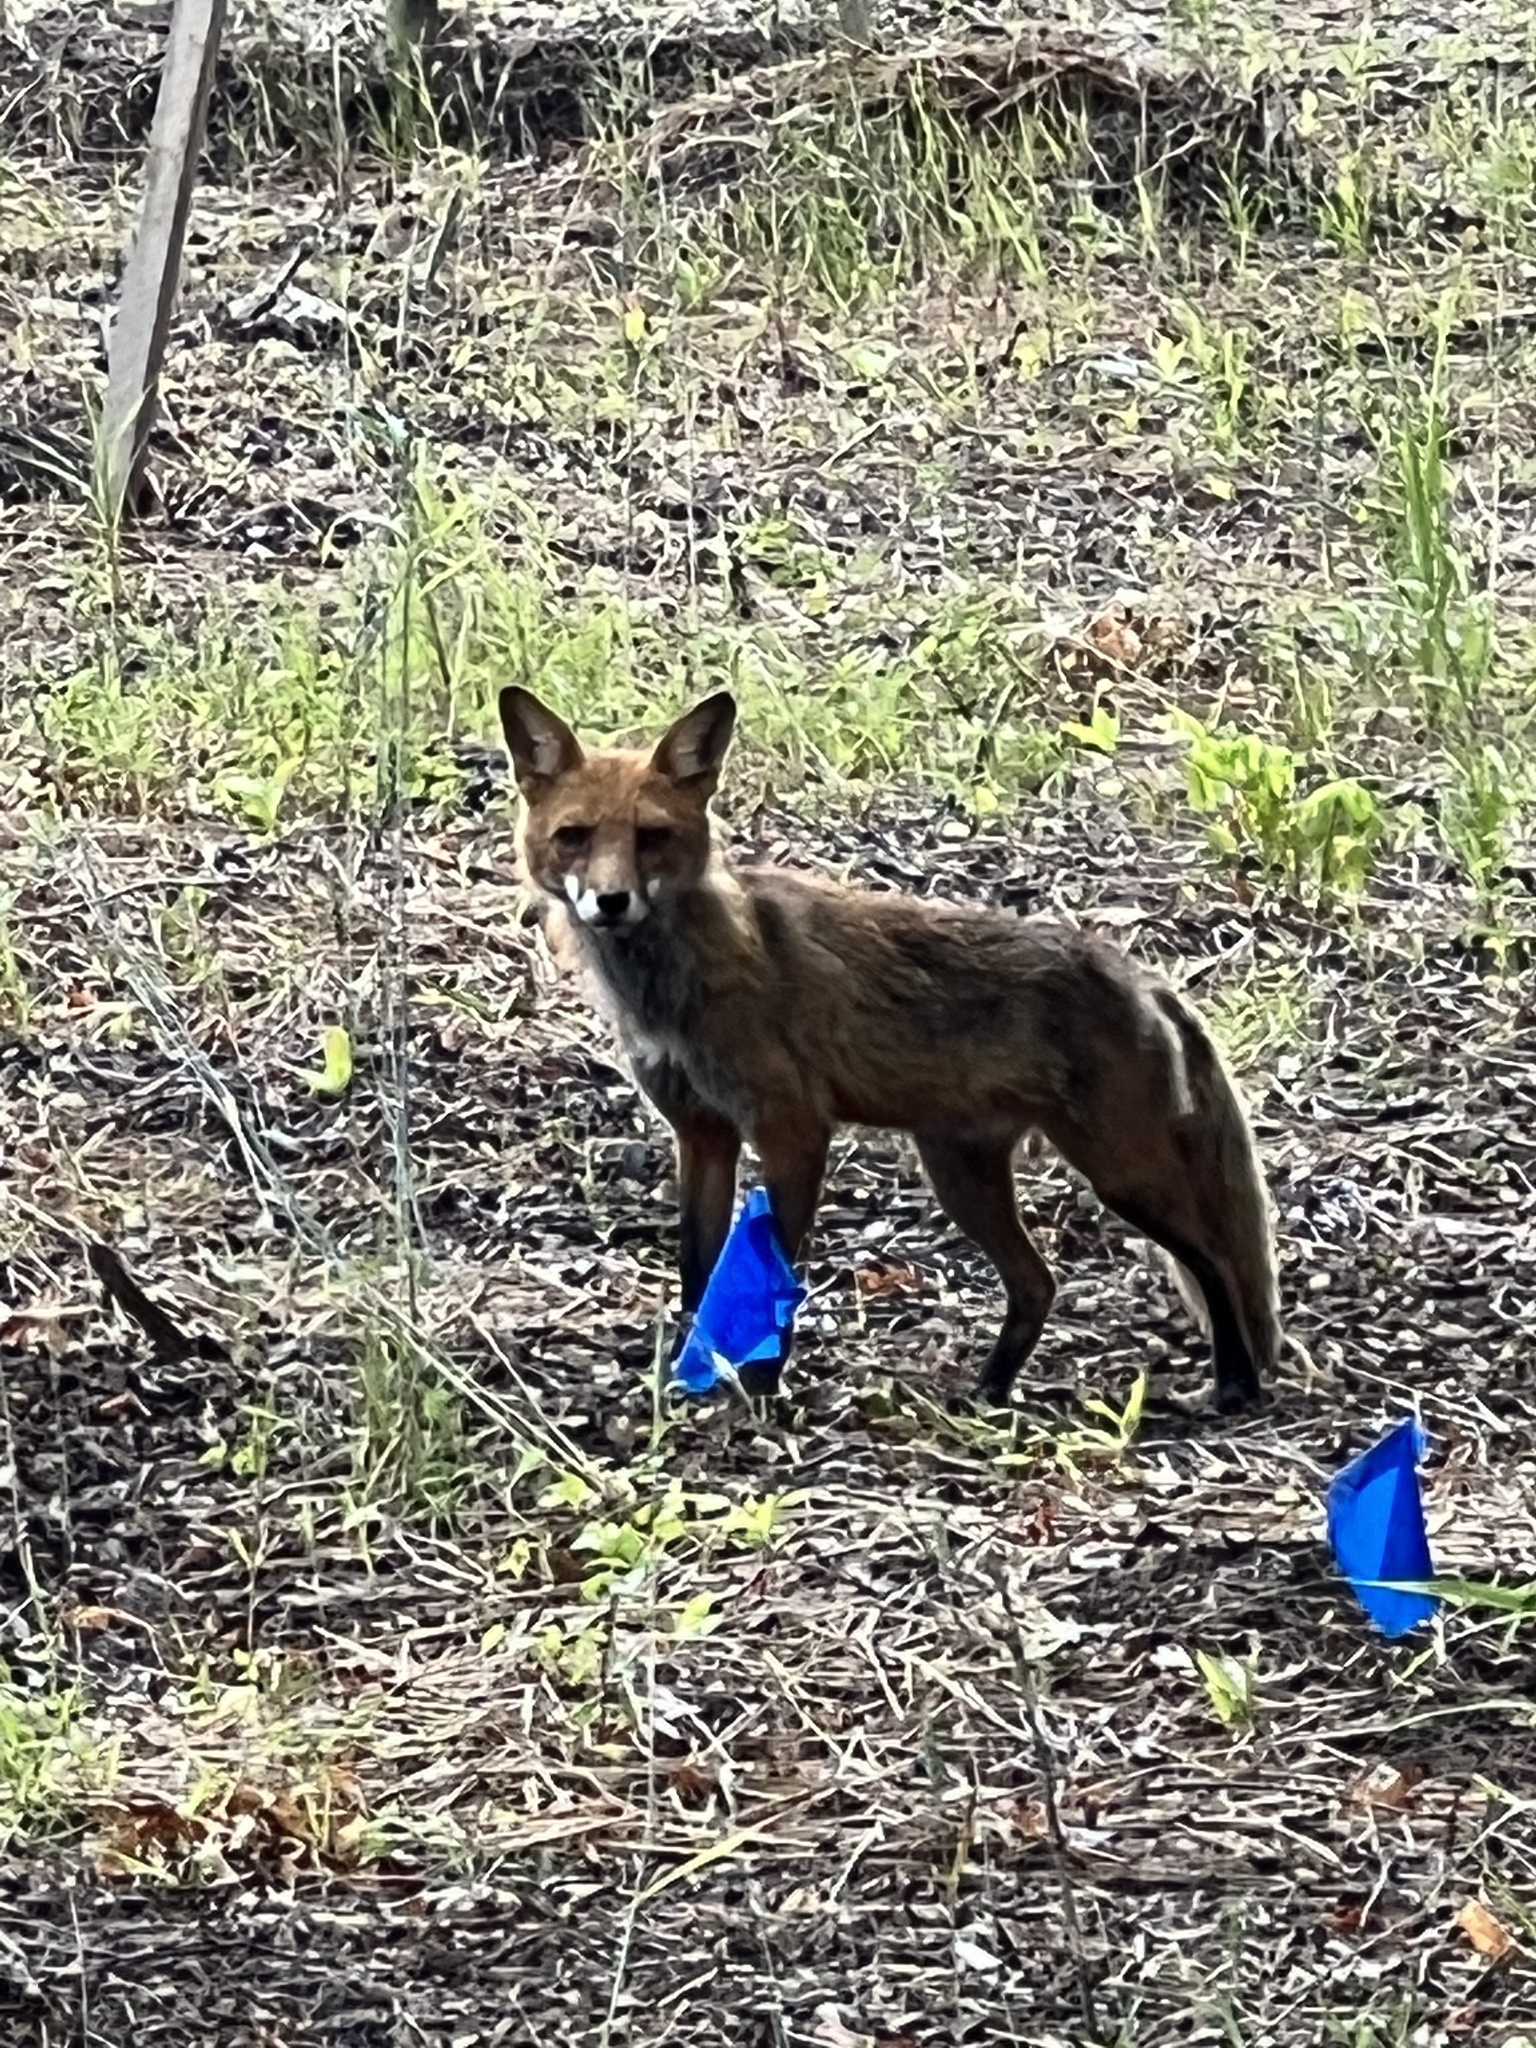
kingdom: Animalia
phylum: Chordata
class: Mammalia
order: Carnivora
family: Canidae
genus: Vulpes
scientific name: Vulpes vulpes
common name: Red fox
